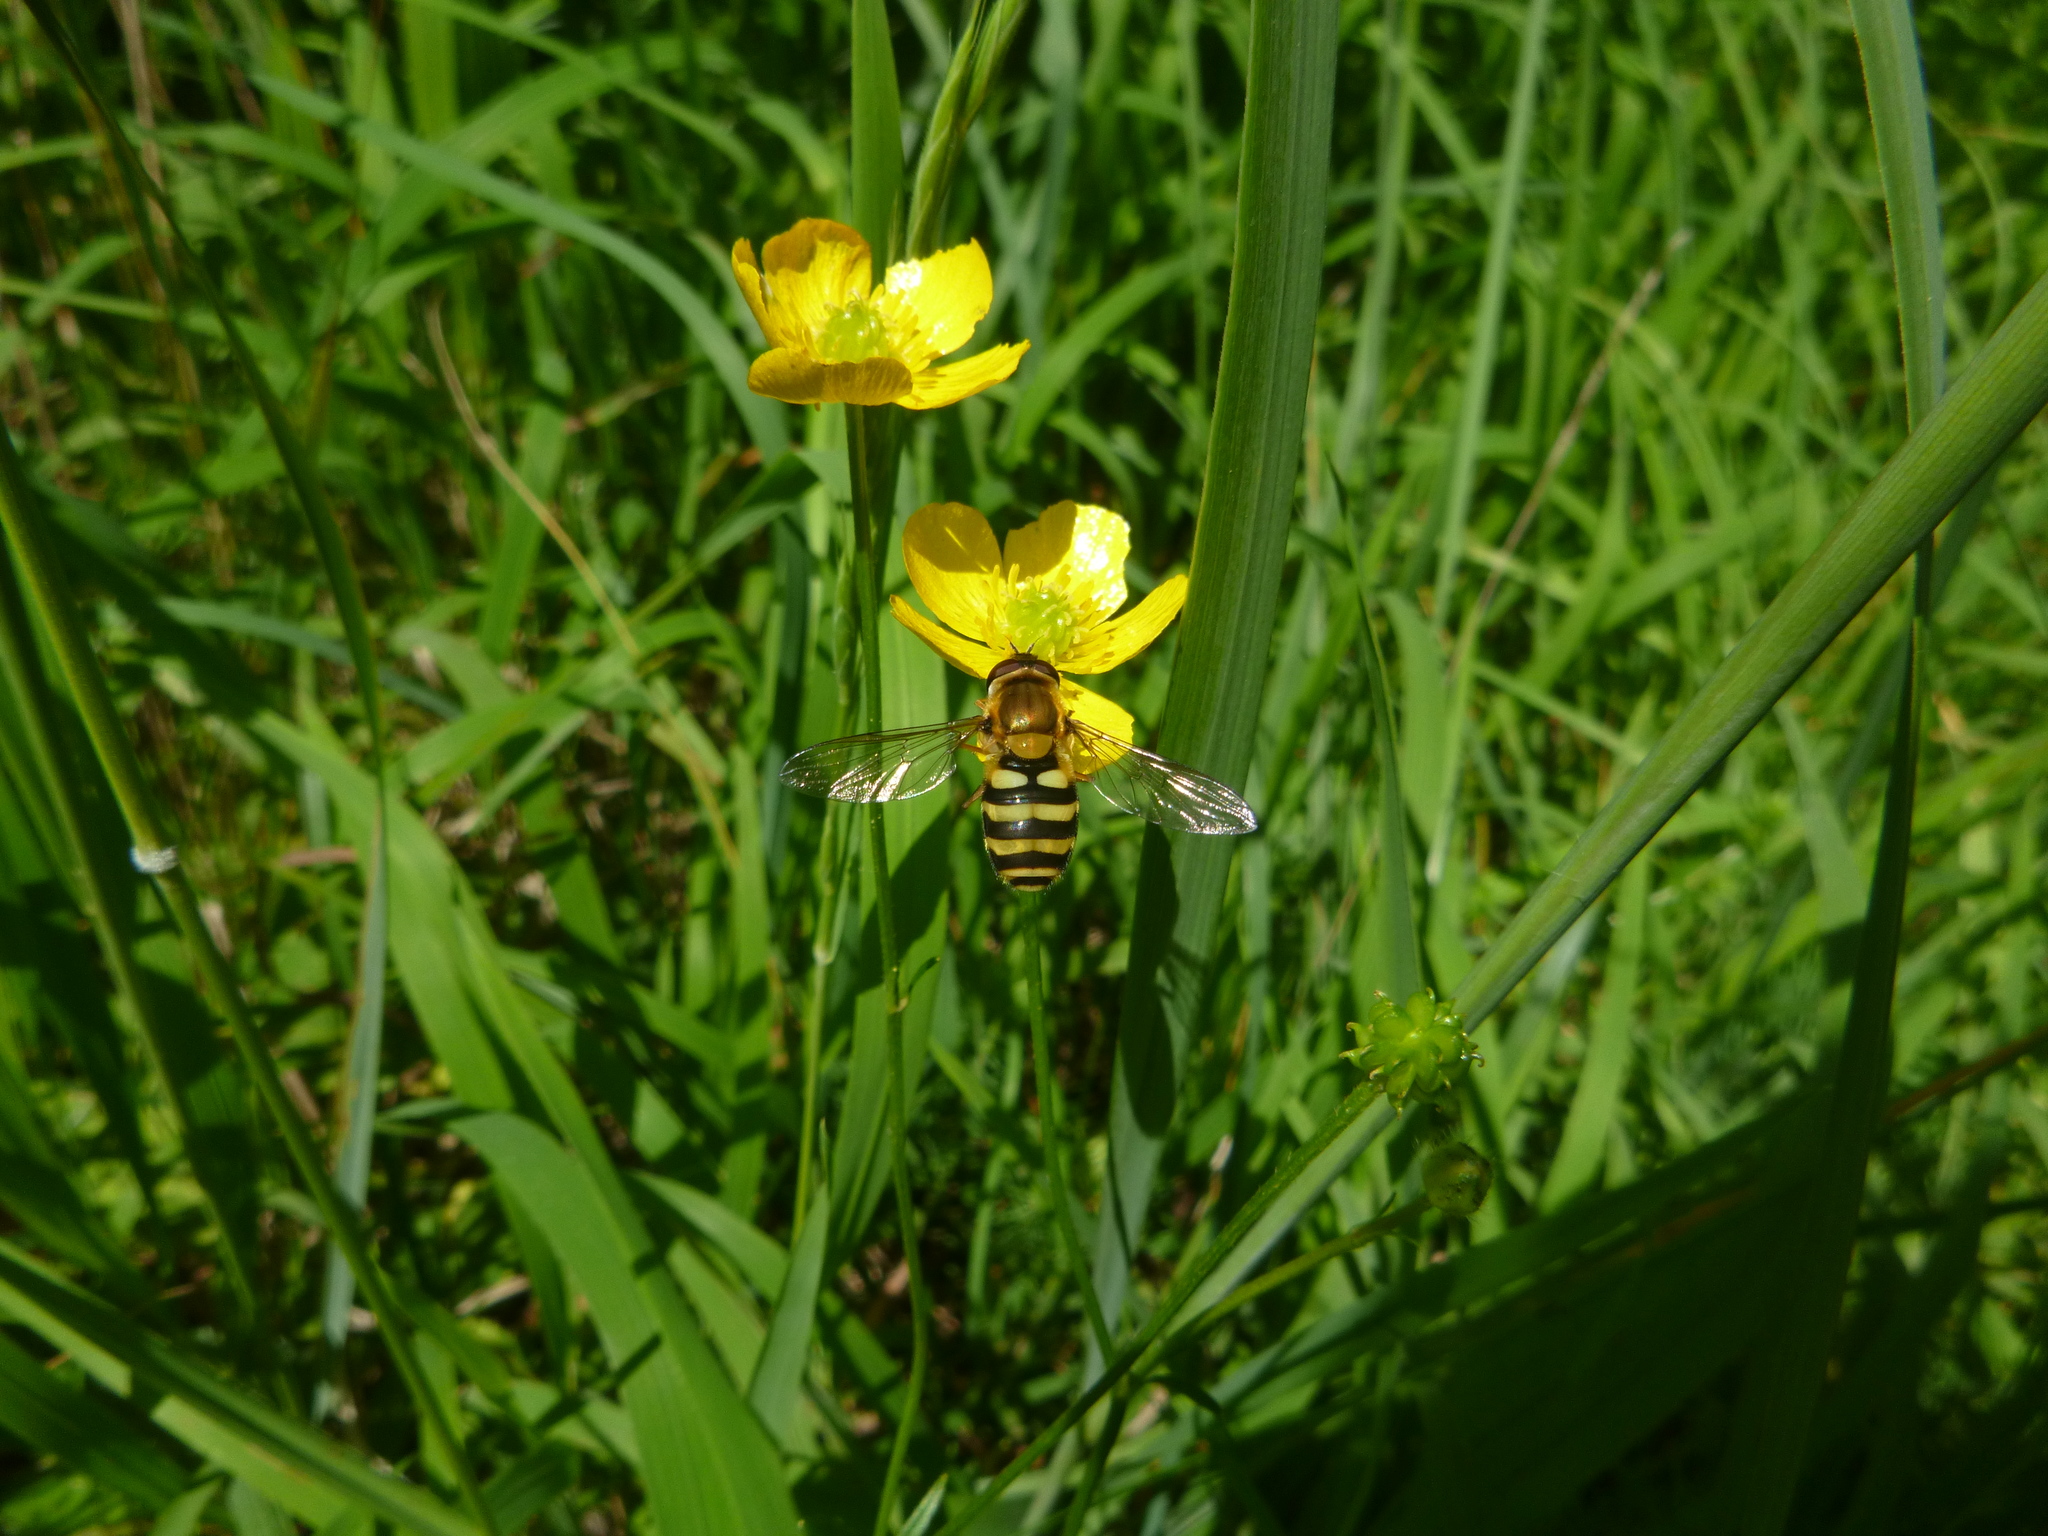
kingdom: Animalia
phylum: Arthropoda
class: Insecta
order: Diptera
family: Syrphidae
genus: Syrphus
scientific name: Syrphus
